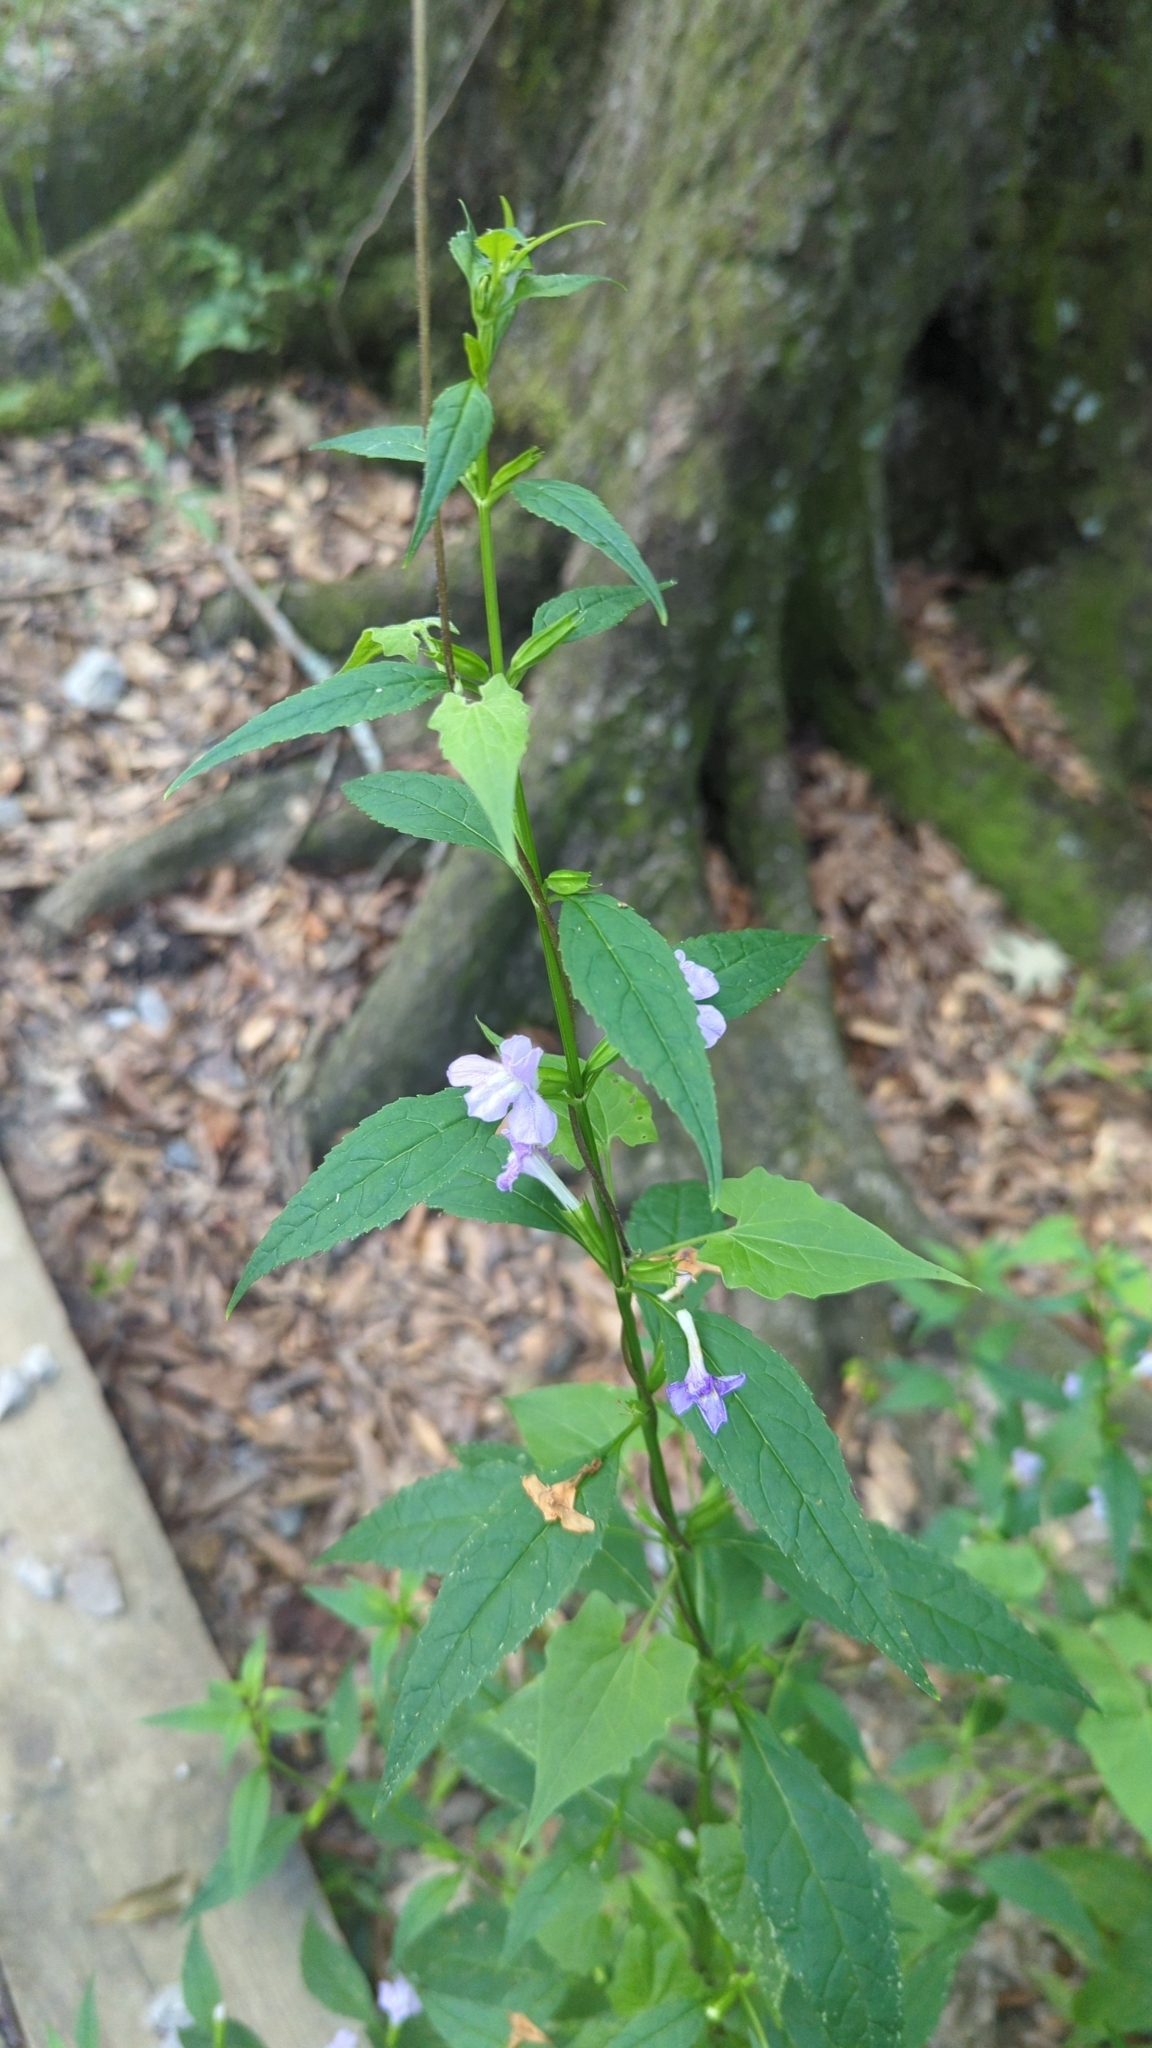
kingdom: Plantae
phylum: Tracheophyta
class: Magnoliopsida
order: Lamiales
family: Phrymaceae
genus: Mimulus
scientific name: Mimulus alatus
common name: Sharp-wing monkey-flower
